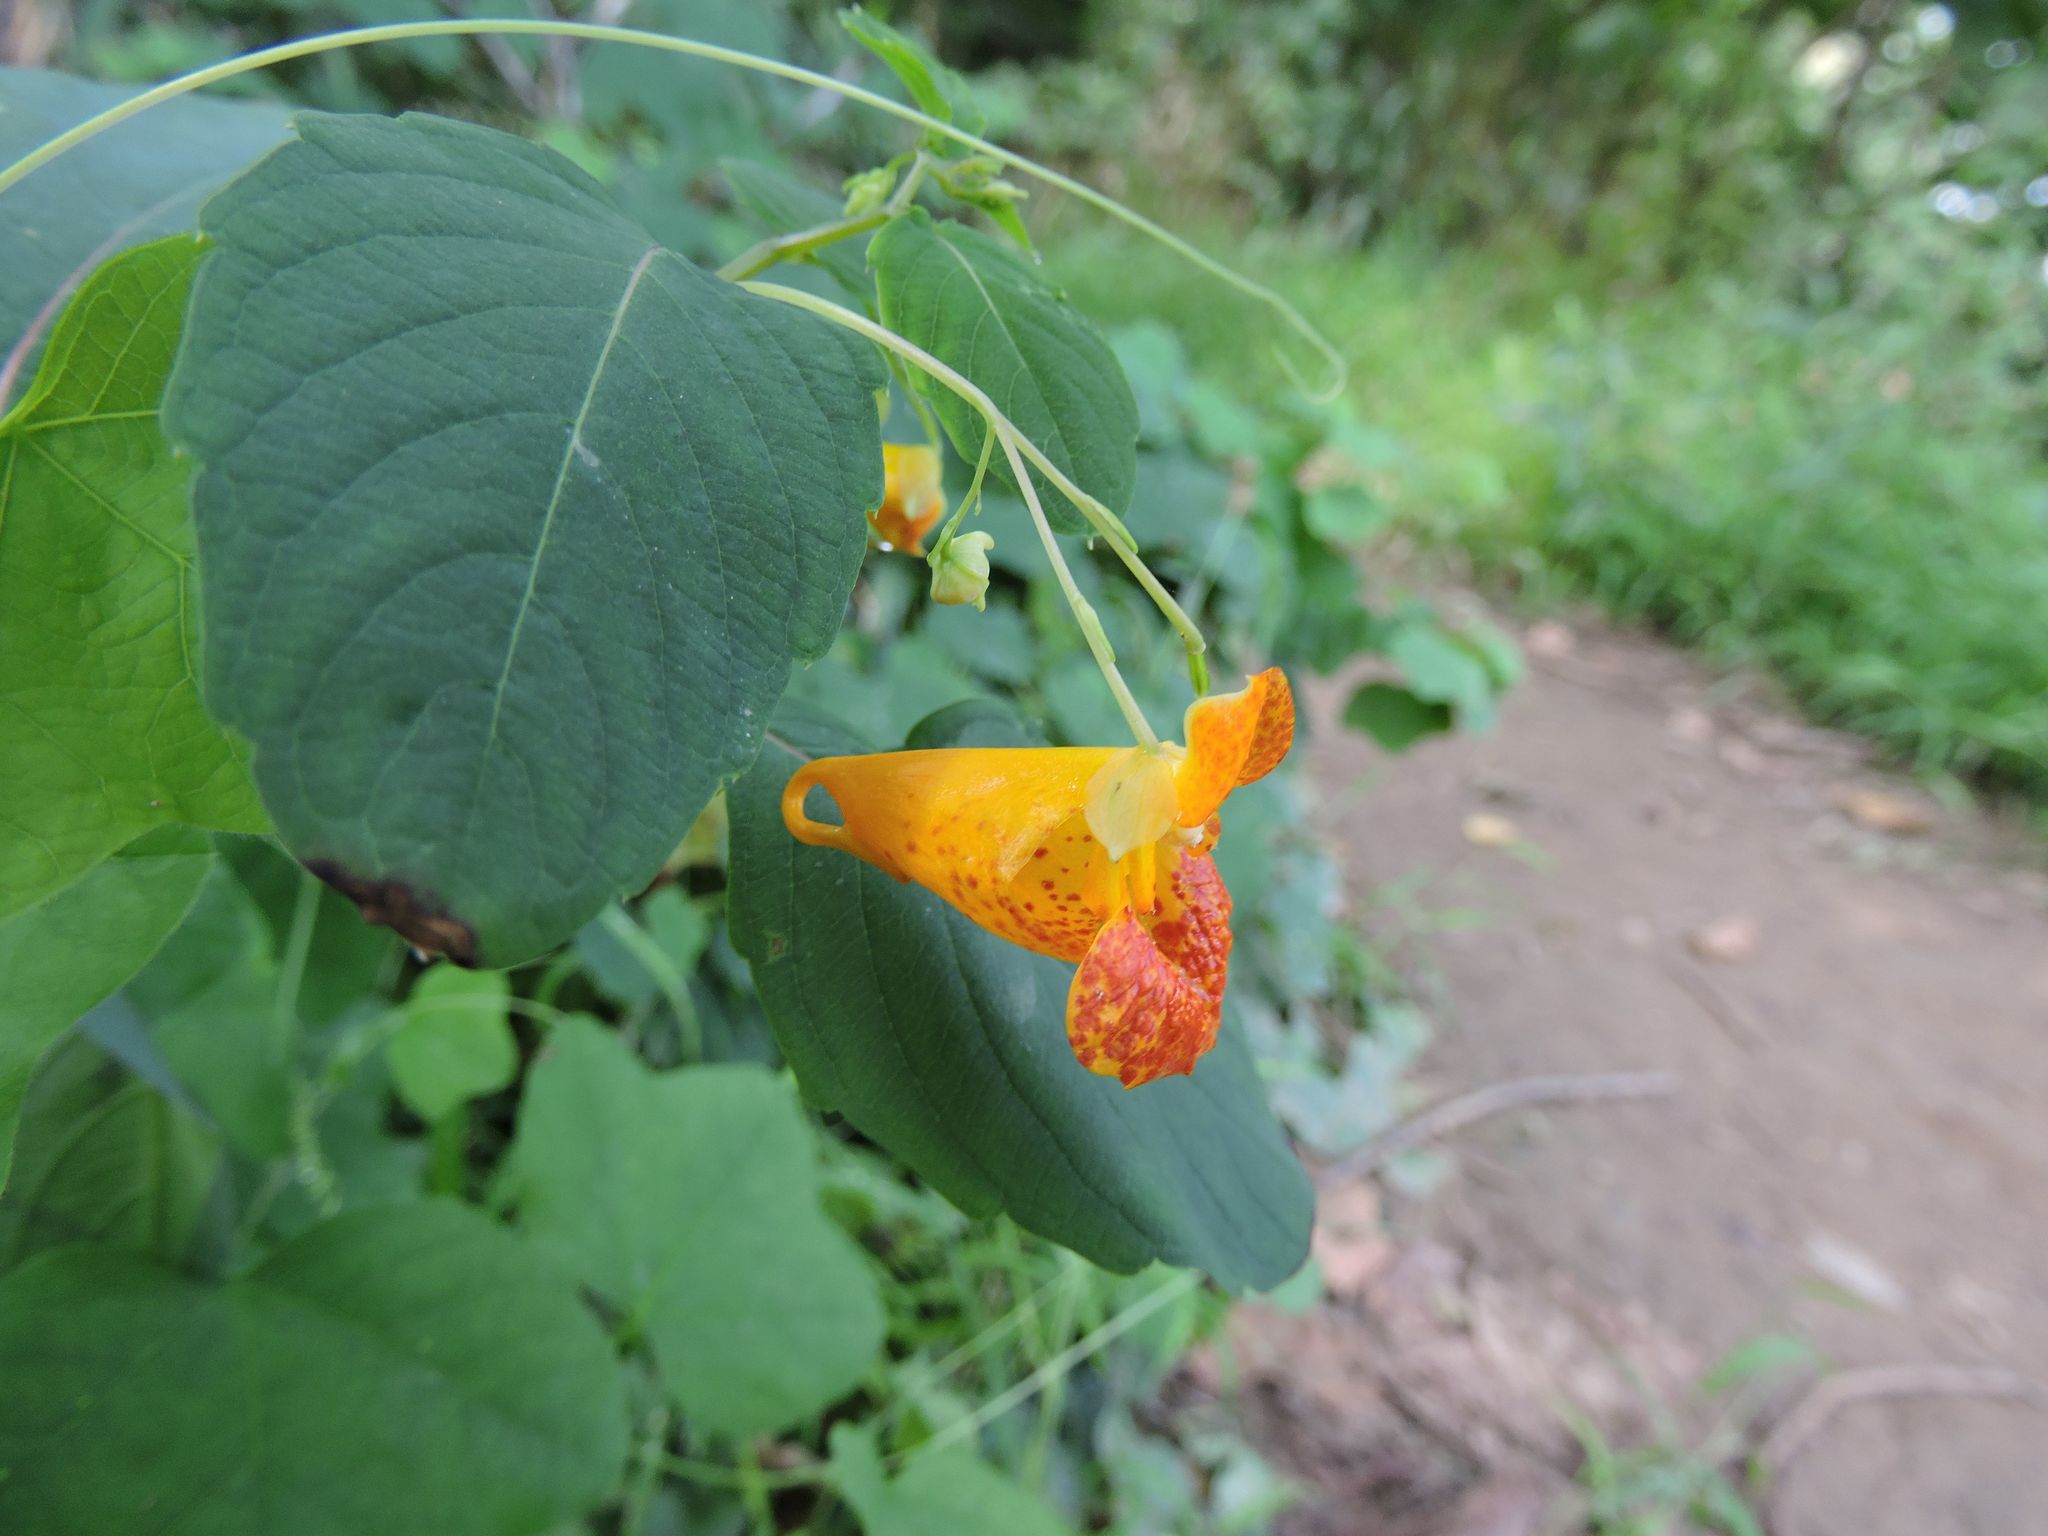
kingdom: Plantae
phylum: Tracheophyta
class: Magnoliopsida
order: Ericales
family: Balsaminaceae
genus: Impatiens
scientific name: Impatiens capensis
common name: Orange balsam
